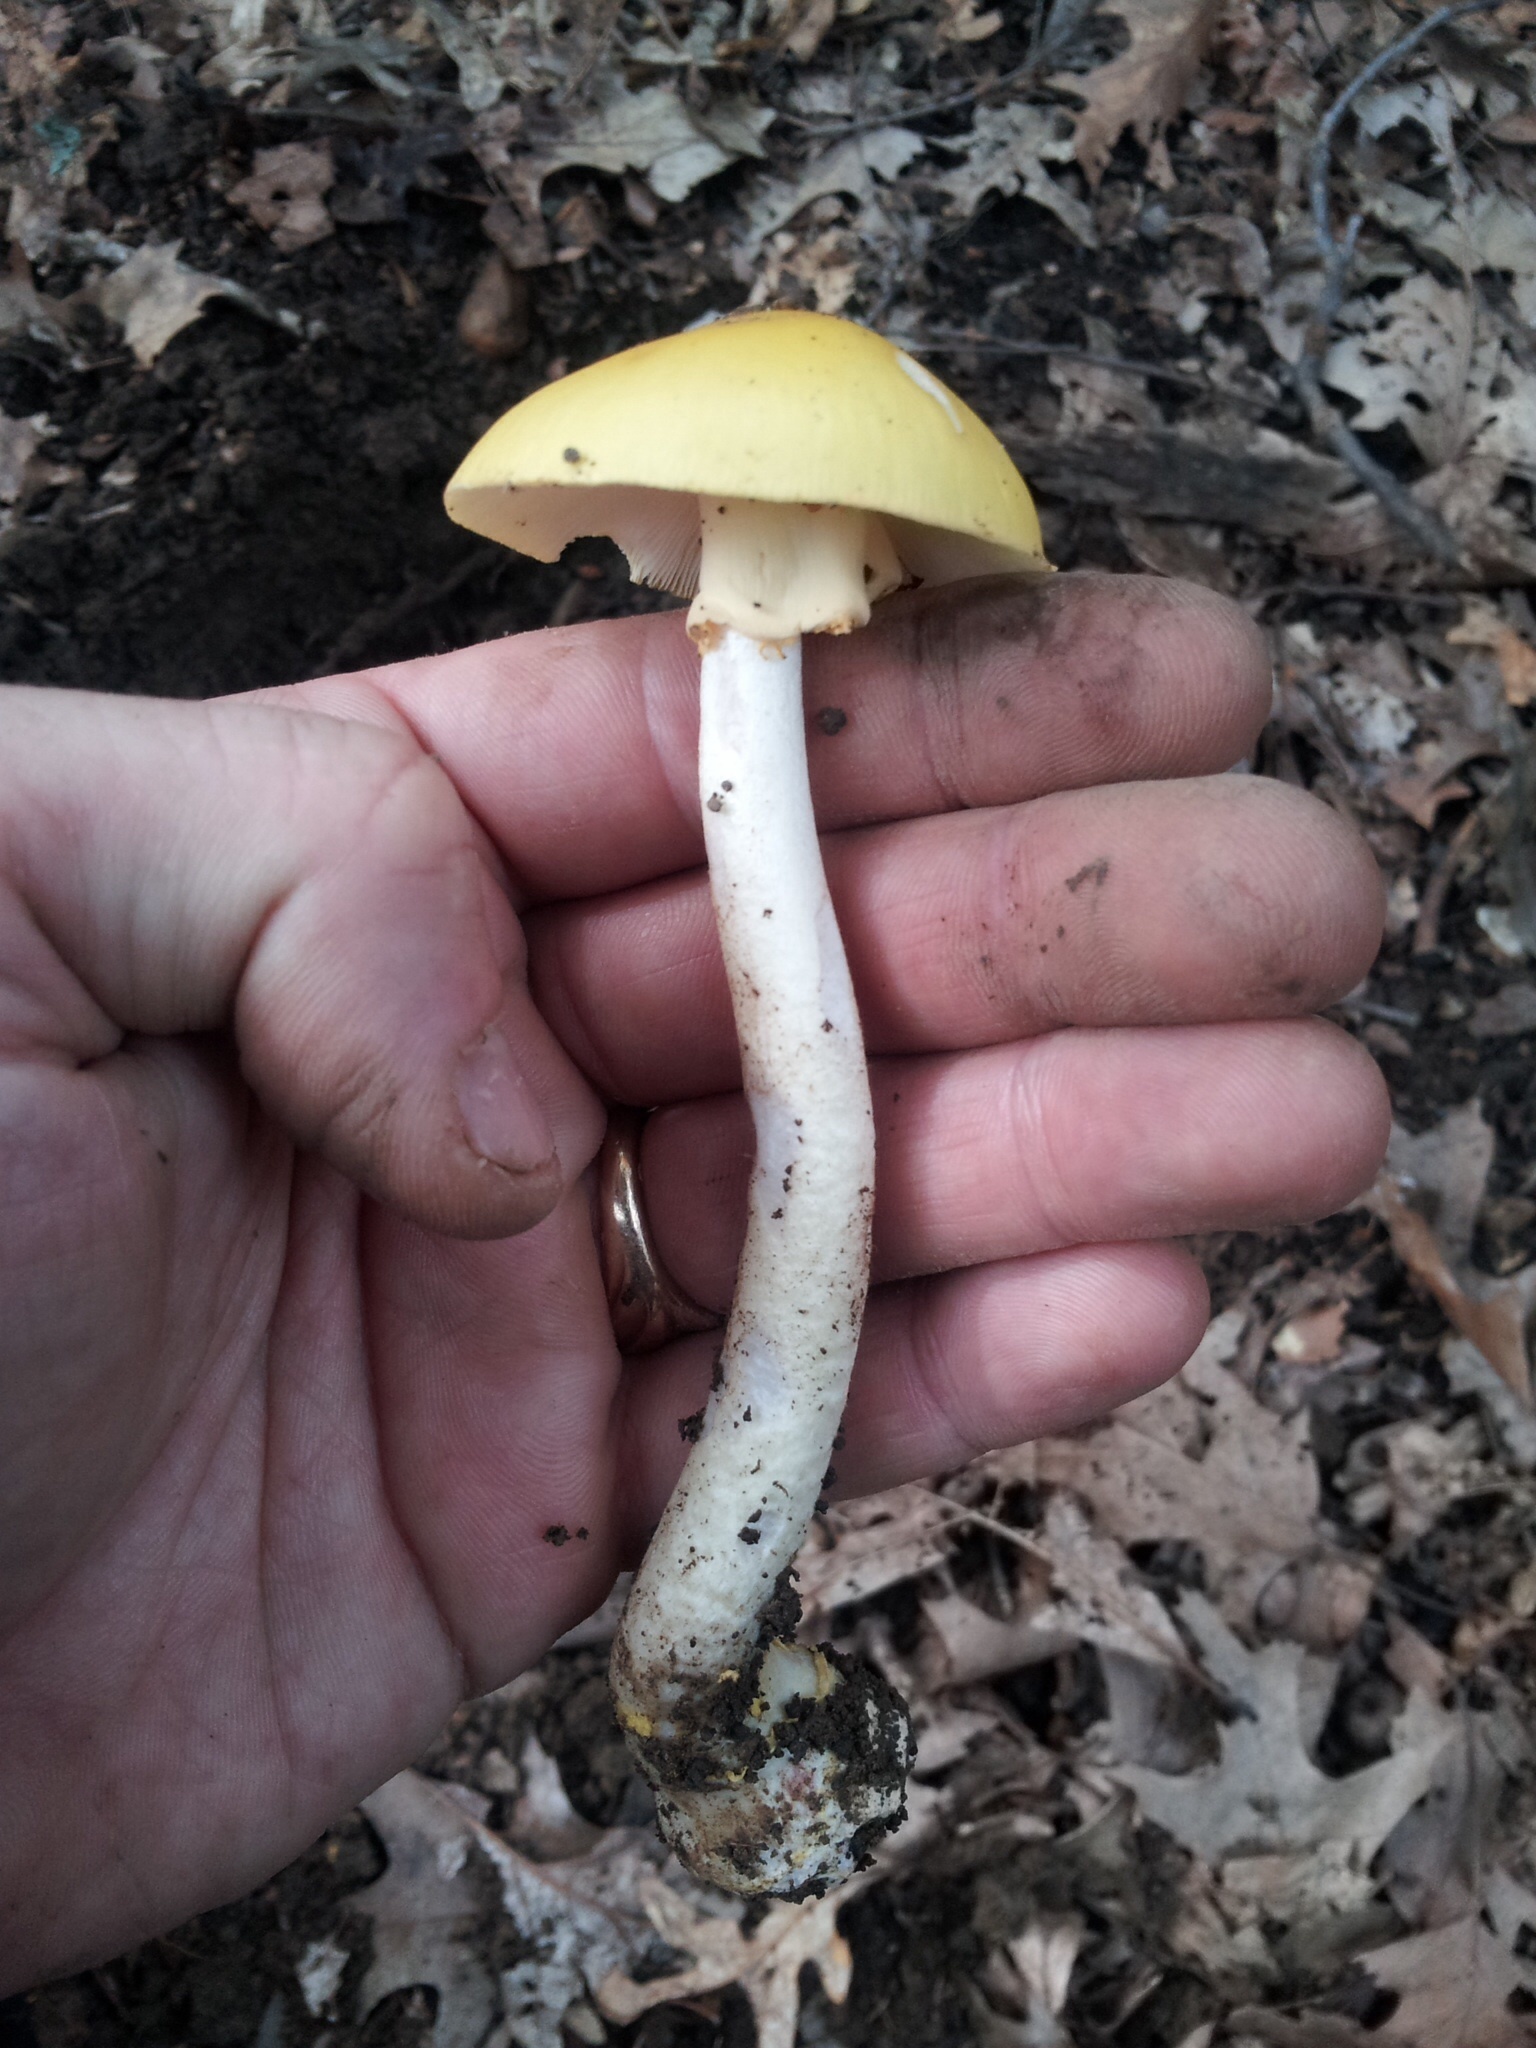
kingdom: Fungi
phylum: Basidiomycota
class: Agaricomycetes
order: Agaricales
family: Amanitaceae
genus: Amanita
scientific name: Amanita flavorubens
